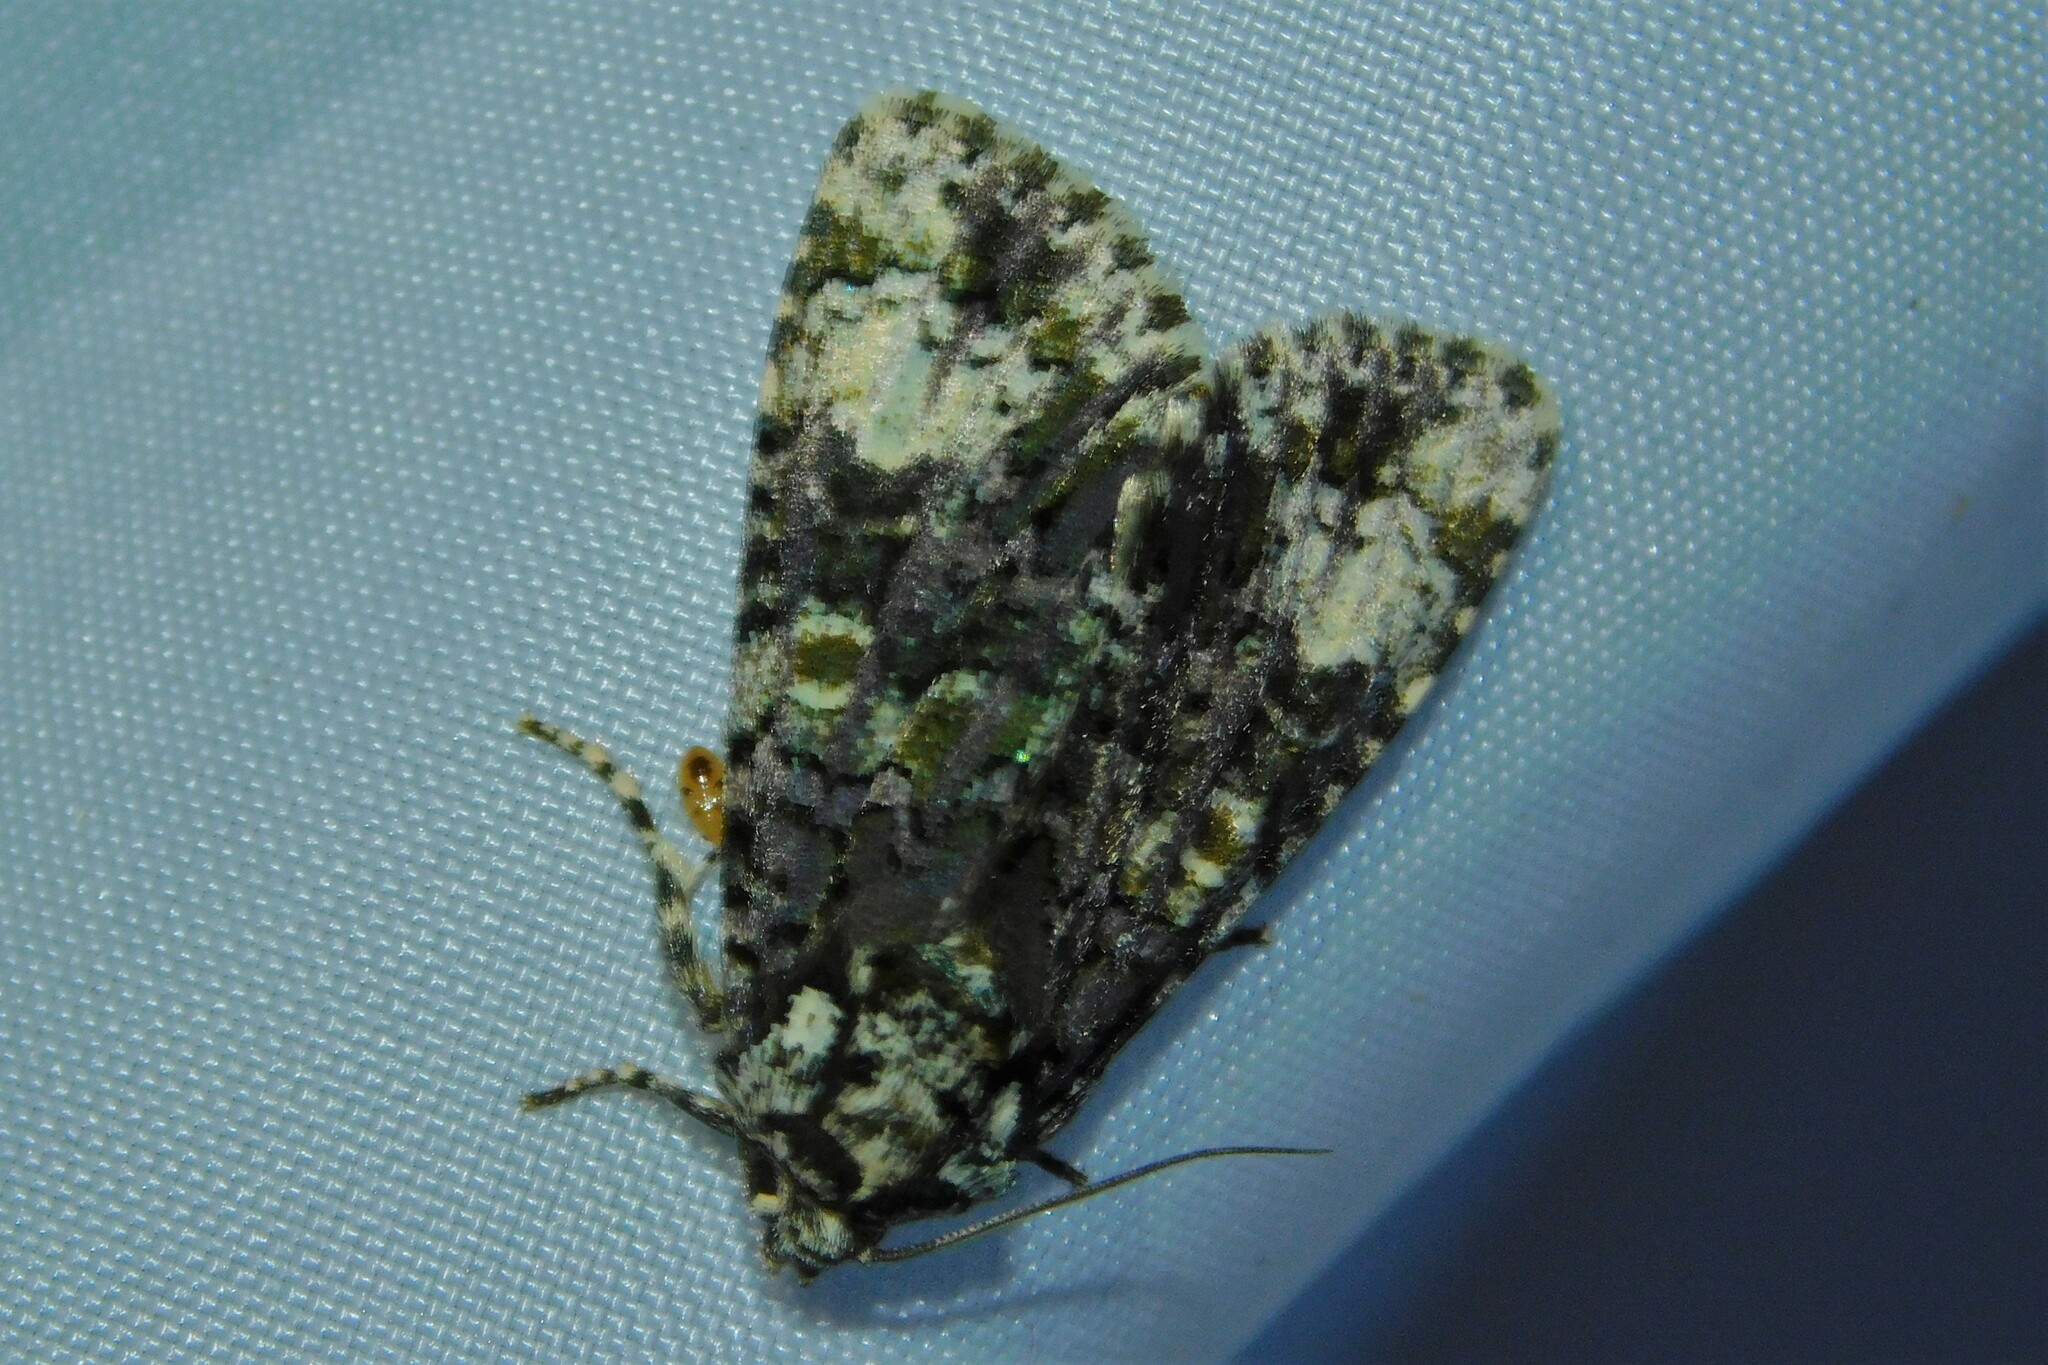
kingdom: Animalia
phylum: Arthropoda
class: Insecta
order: Lepidoptera
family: Noctuidae
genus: Craniophora
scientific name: Craniophora ligustri
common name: Coronet
